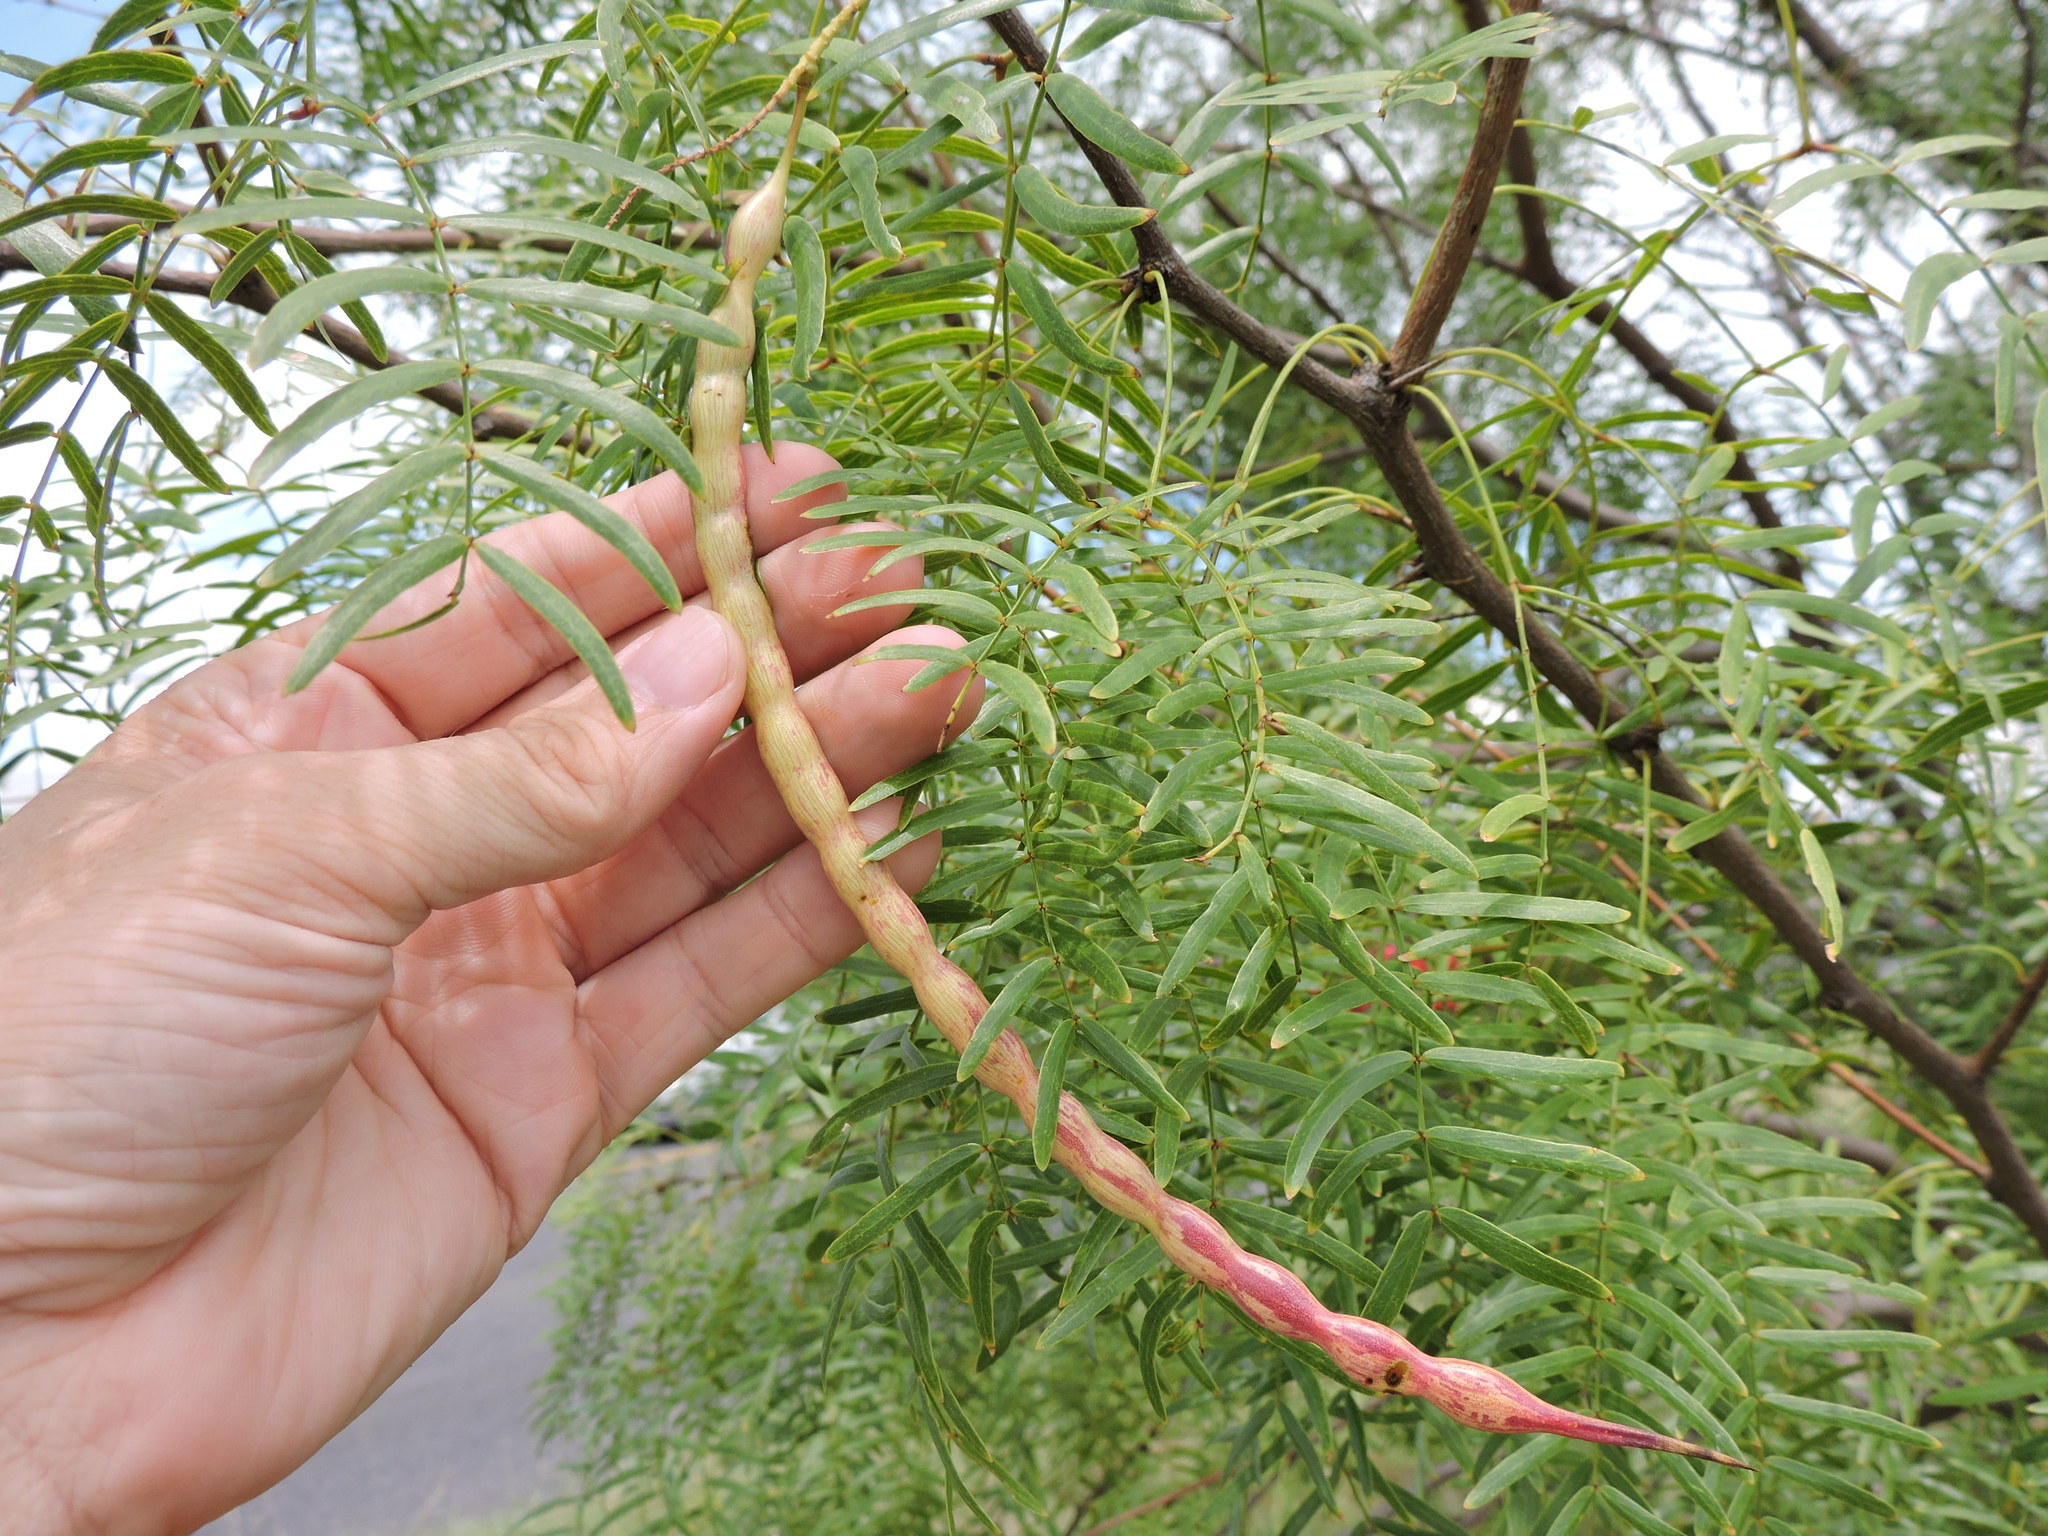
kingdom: Plantae
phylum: Tracheophyta
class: Magnoliopsida
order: Fabales
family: Fabaceae
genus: Prosopis
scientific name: Prosopis glandulosa
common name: Honey mesquite
